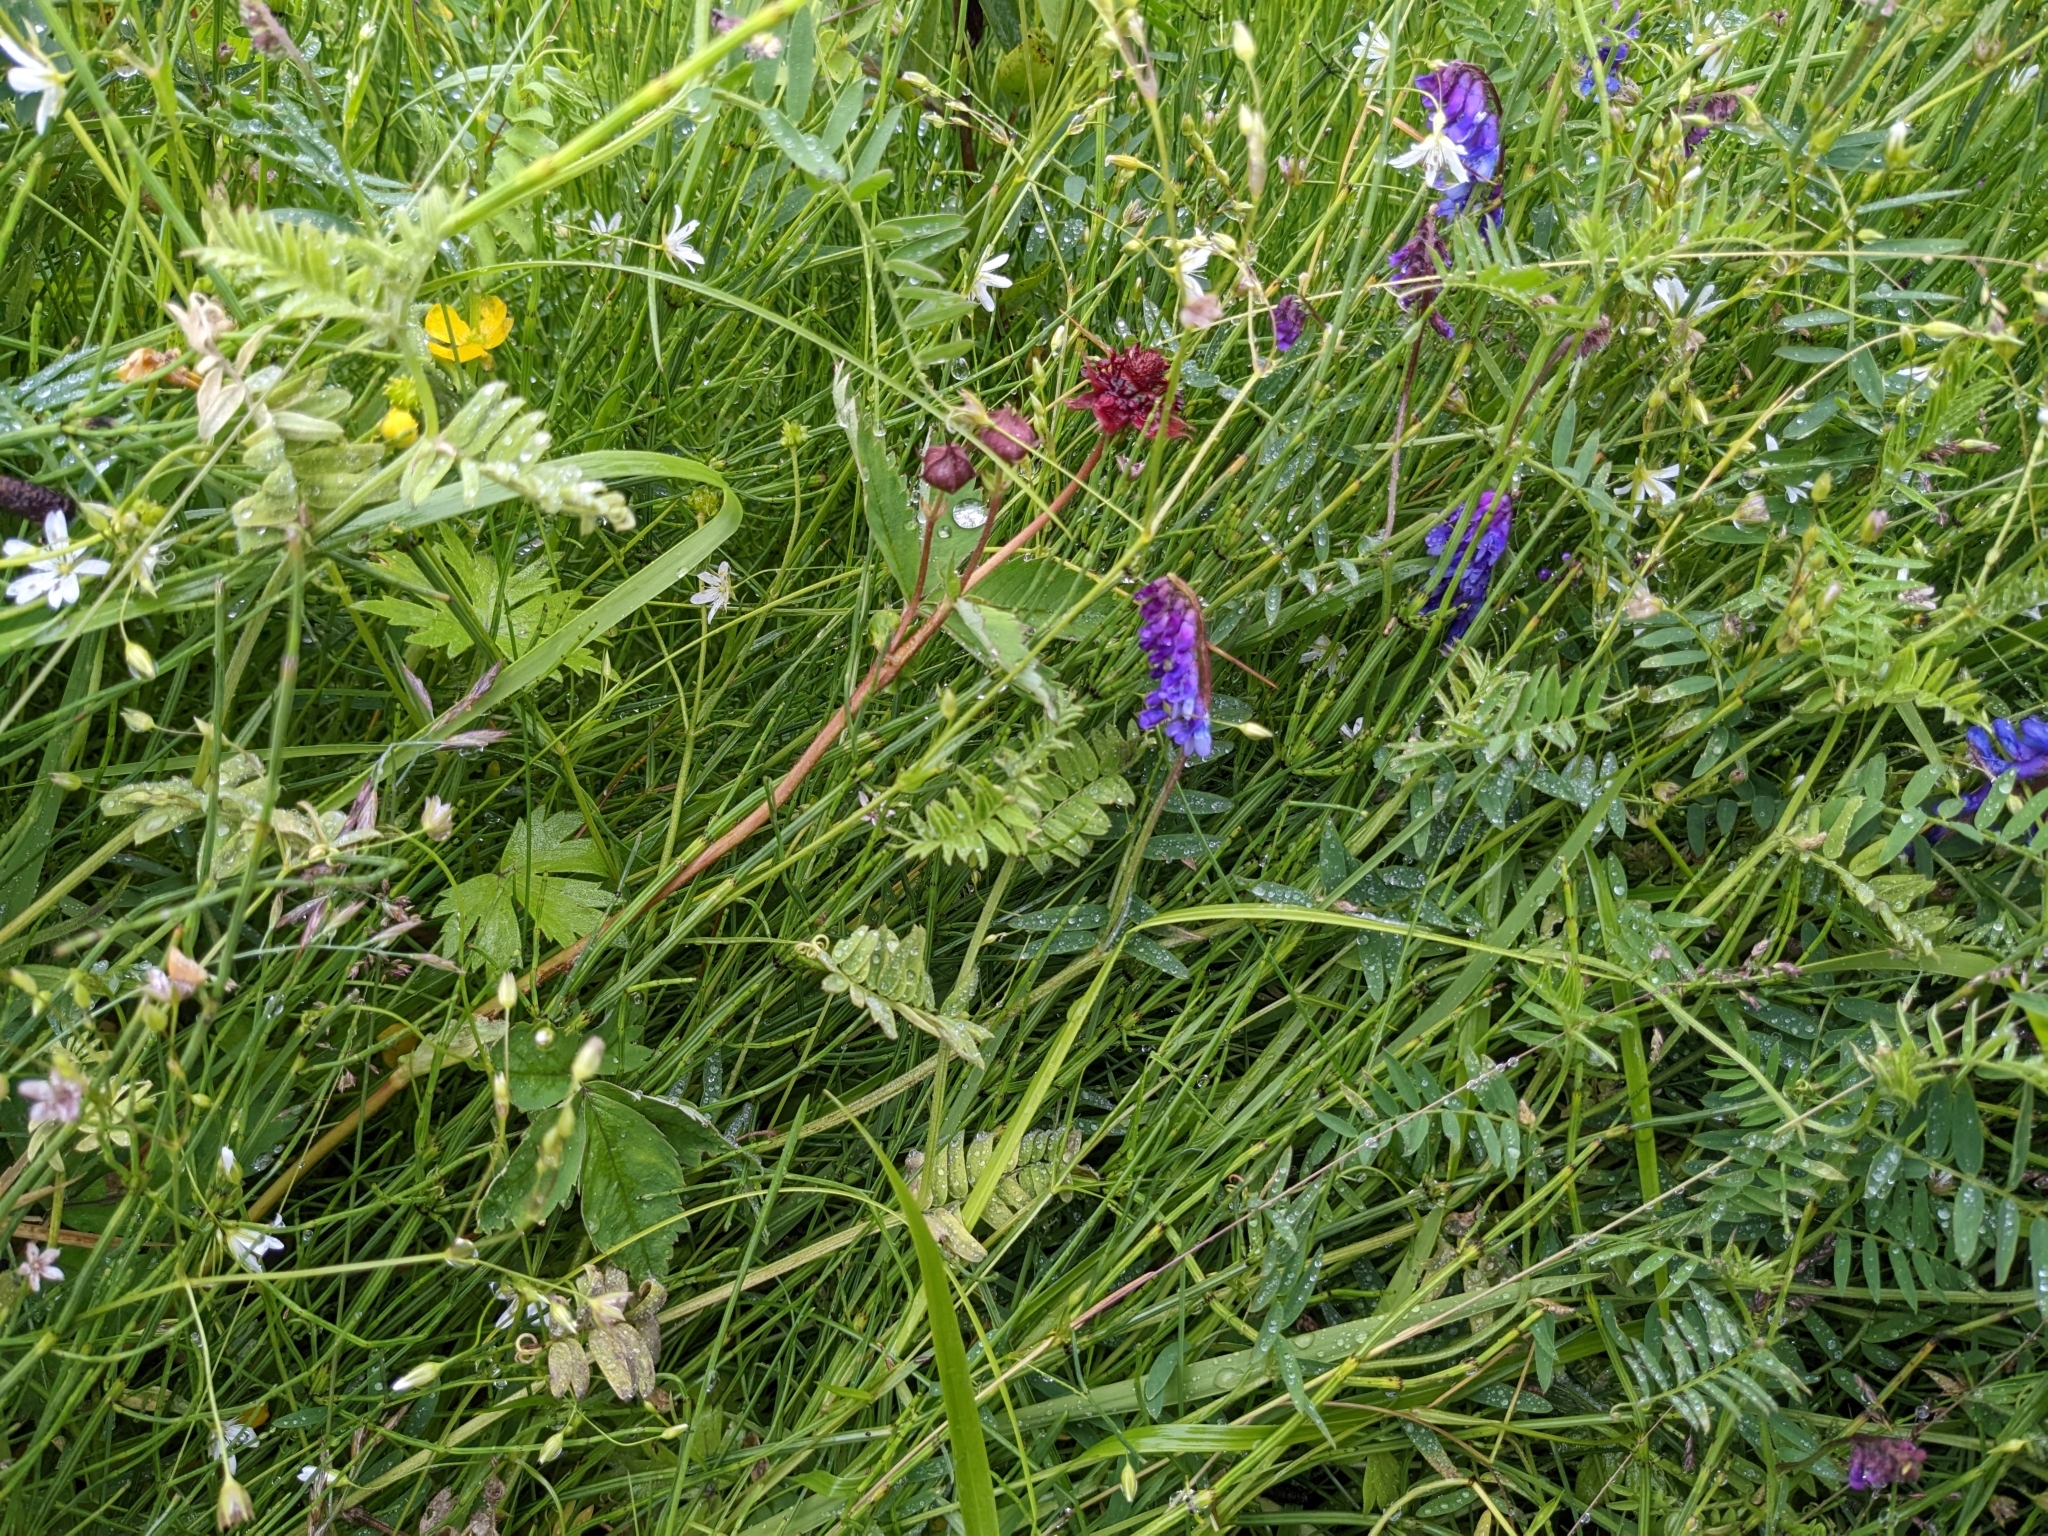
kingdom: Plantae
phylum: Tracheophyta
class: Magnoliopsida
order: Rosales
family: Rosaceae
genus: Comarum
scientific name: Comarum palustre
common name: Marsh cinquefoil
